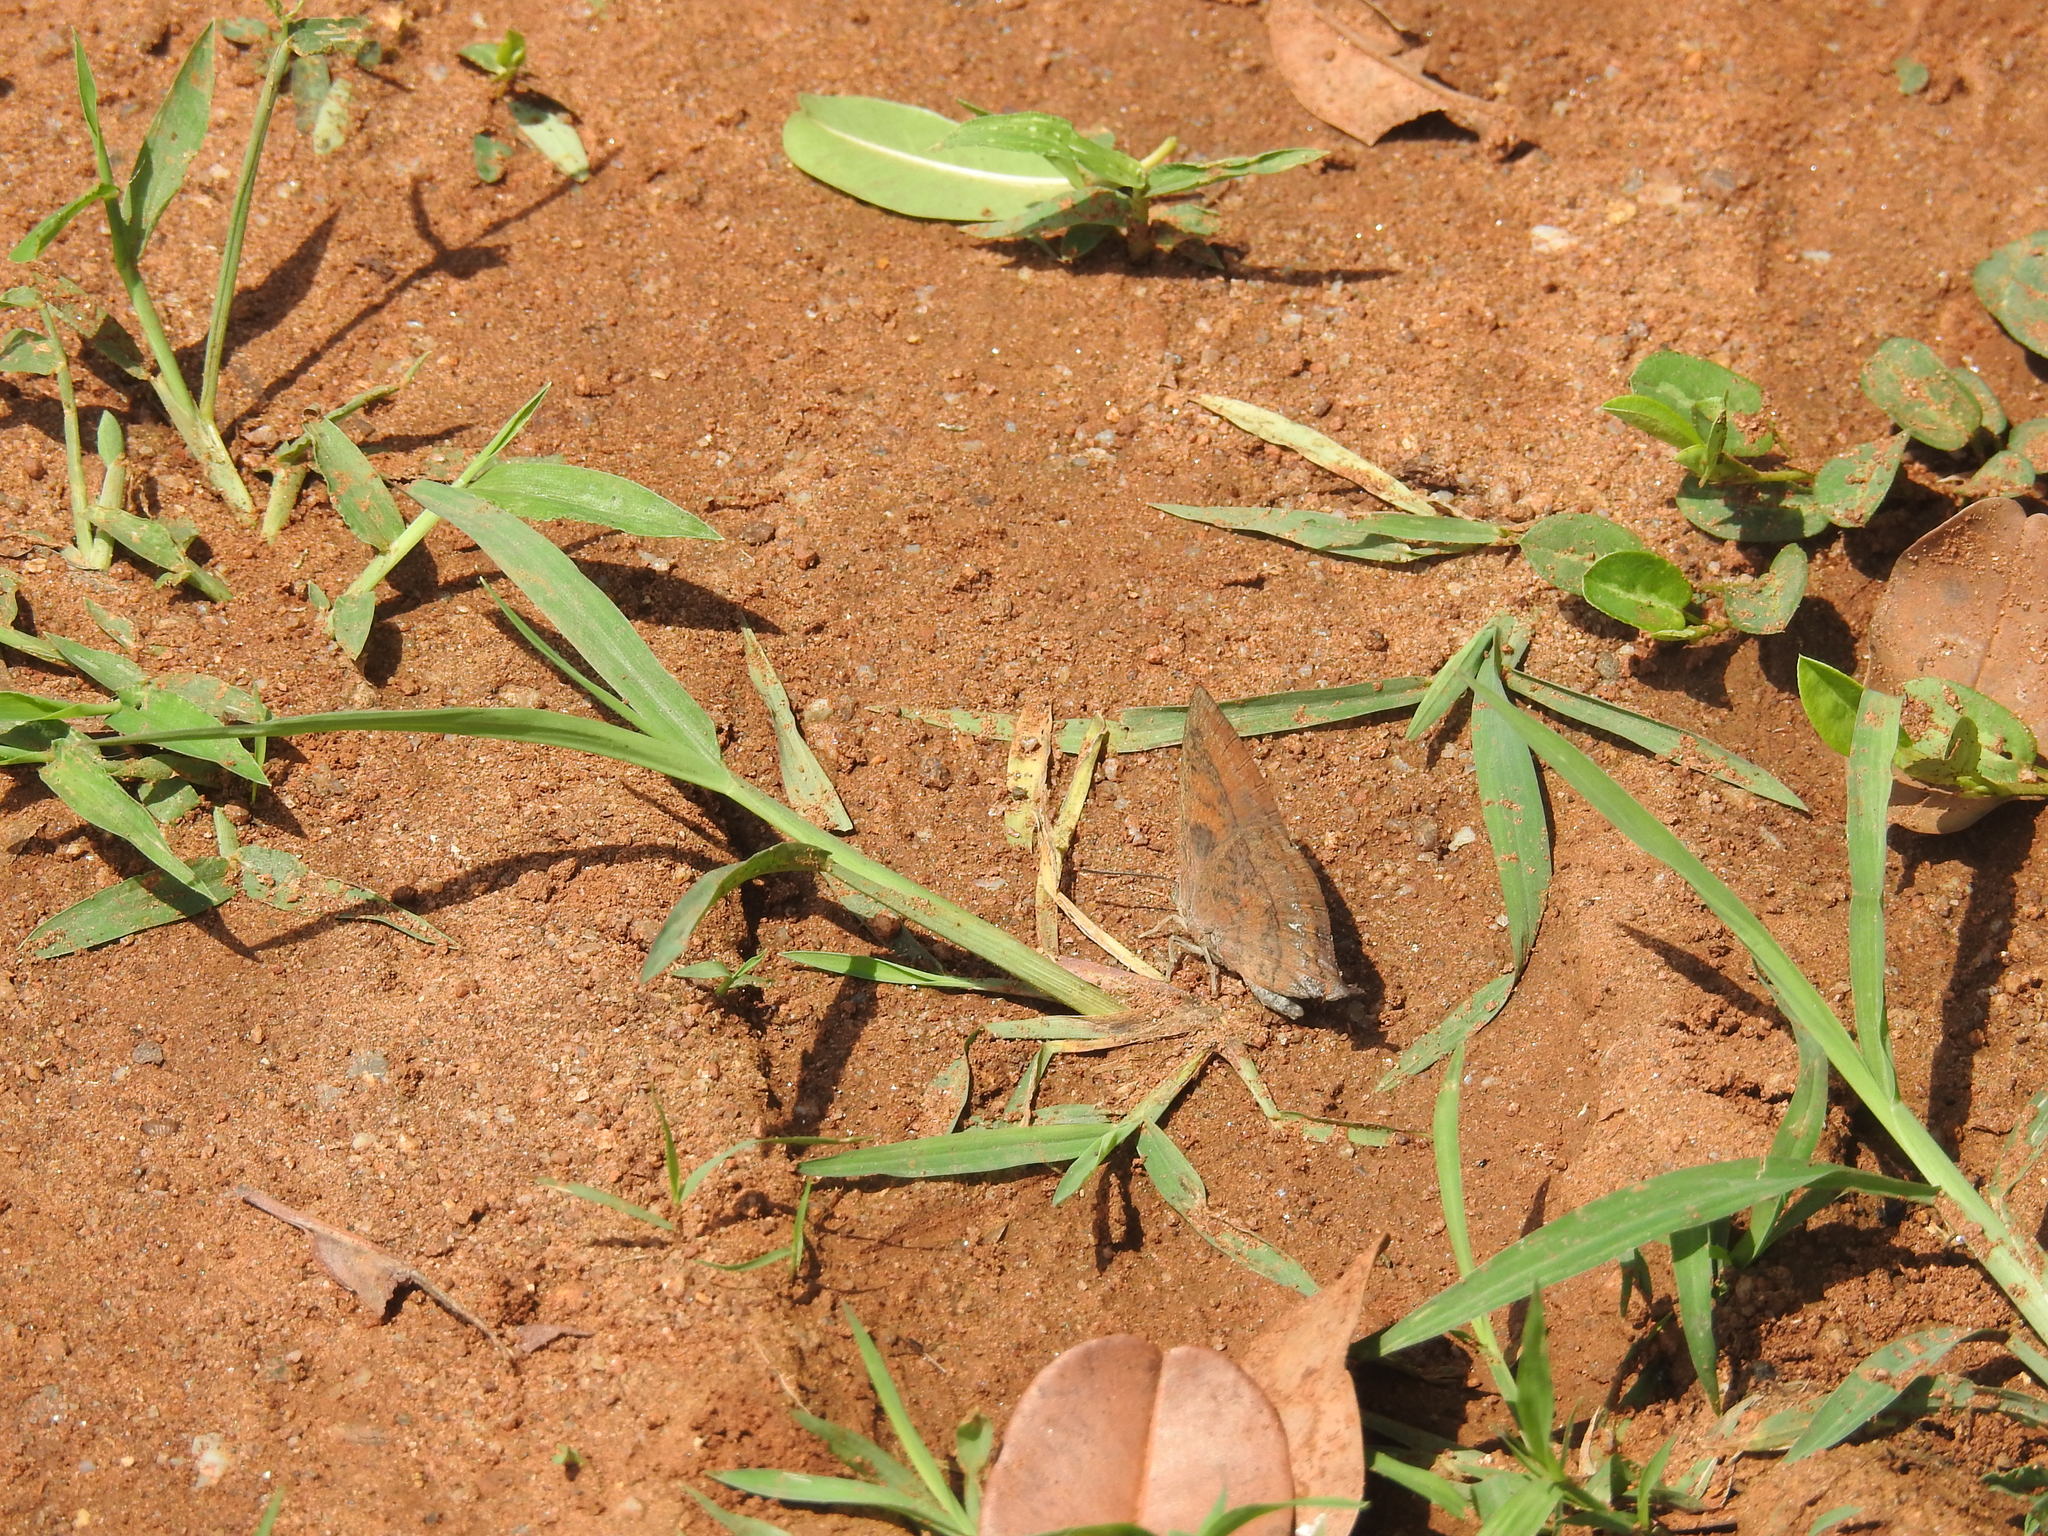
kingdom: Animalia
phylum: Arthropoda
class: Insecta
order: Lepidoptera
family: Lycaenidae
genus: Amblypodia
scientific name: Amblypodia anita
